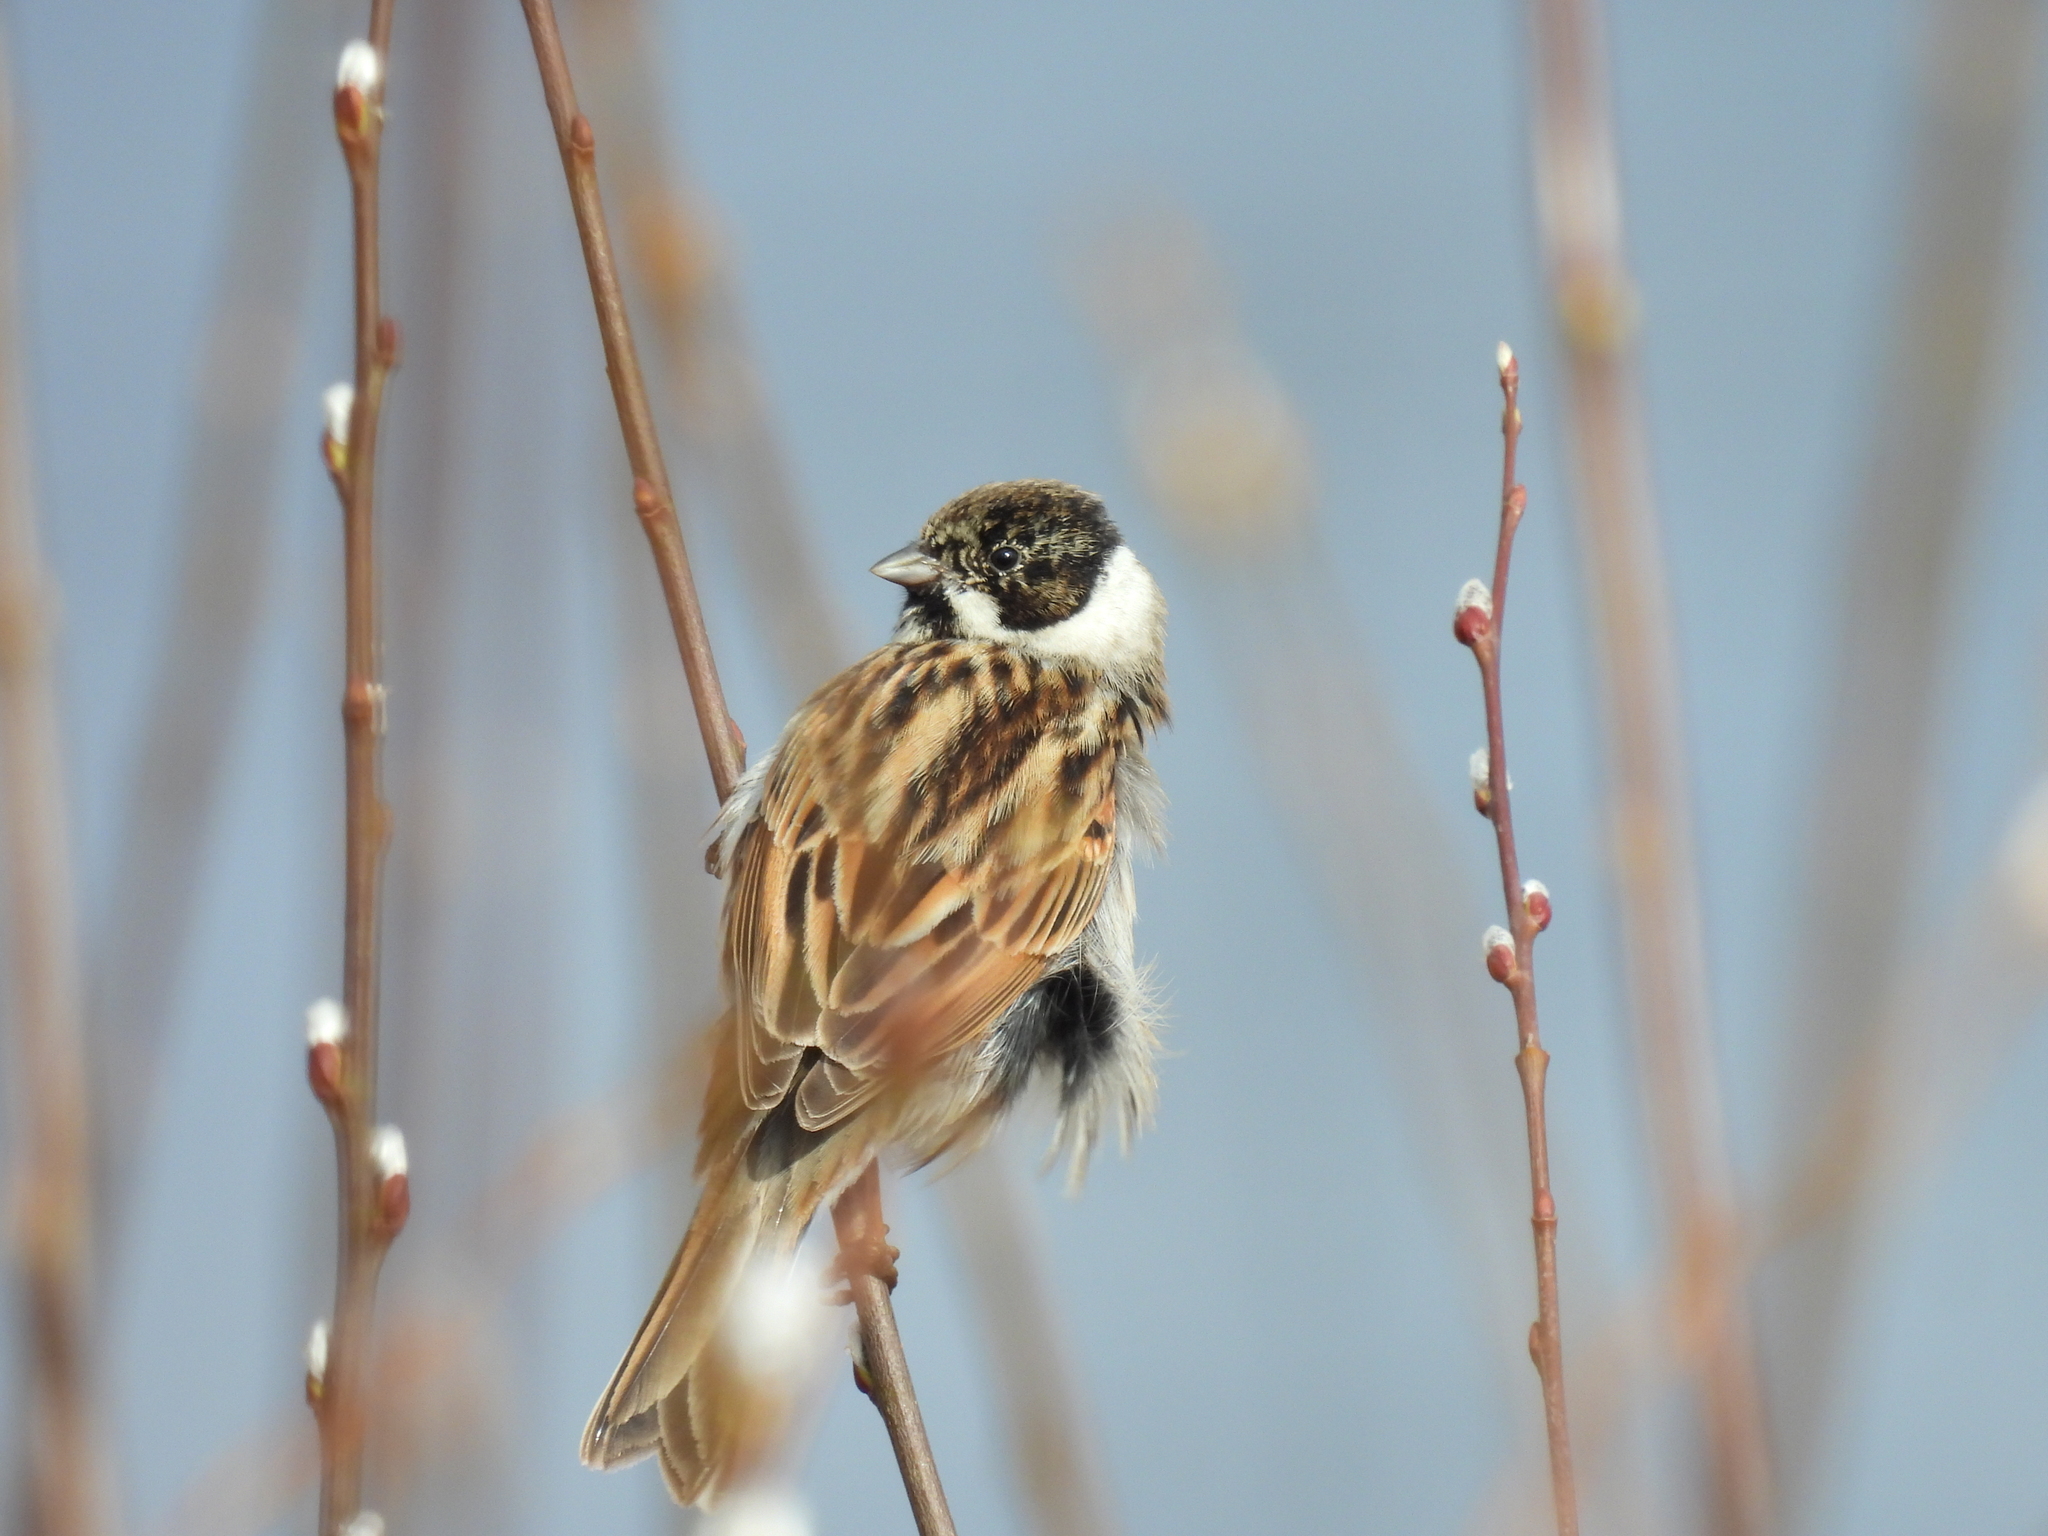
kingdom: Animalia
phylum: Chordata
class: Aves
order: Passeriformes
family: Emberizidae
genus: Emberiza
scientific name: Emberiza schoeniclus
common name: Reed bunting
